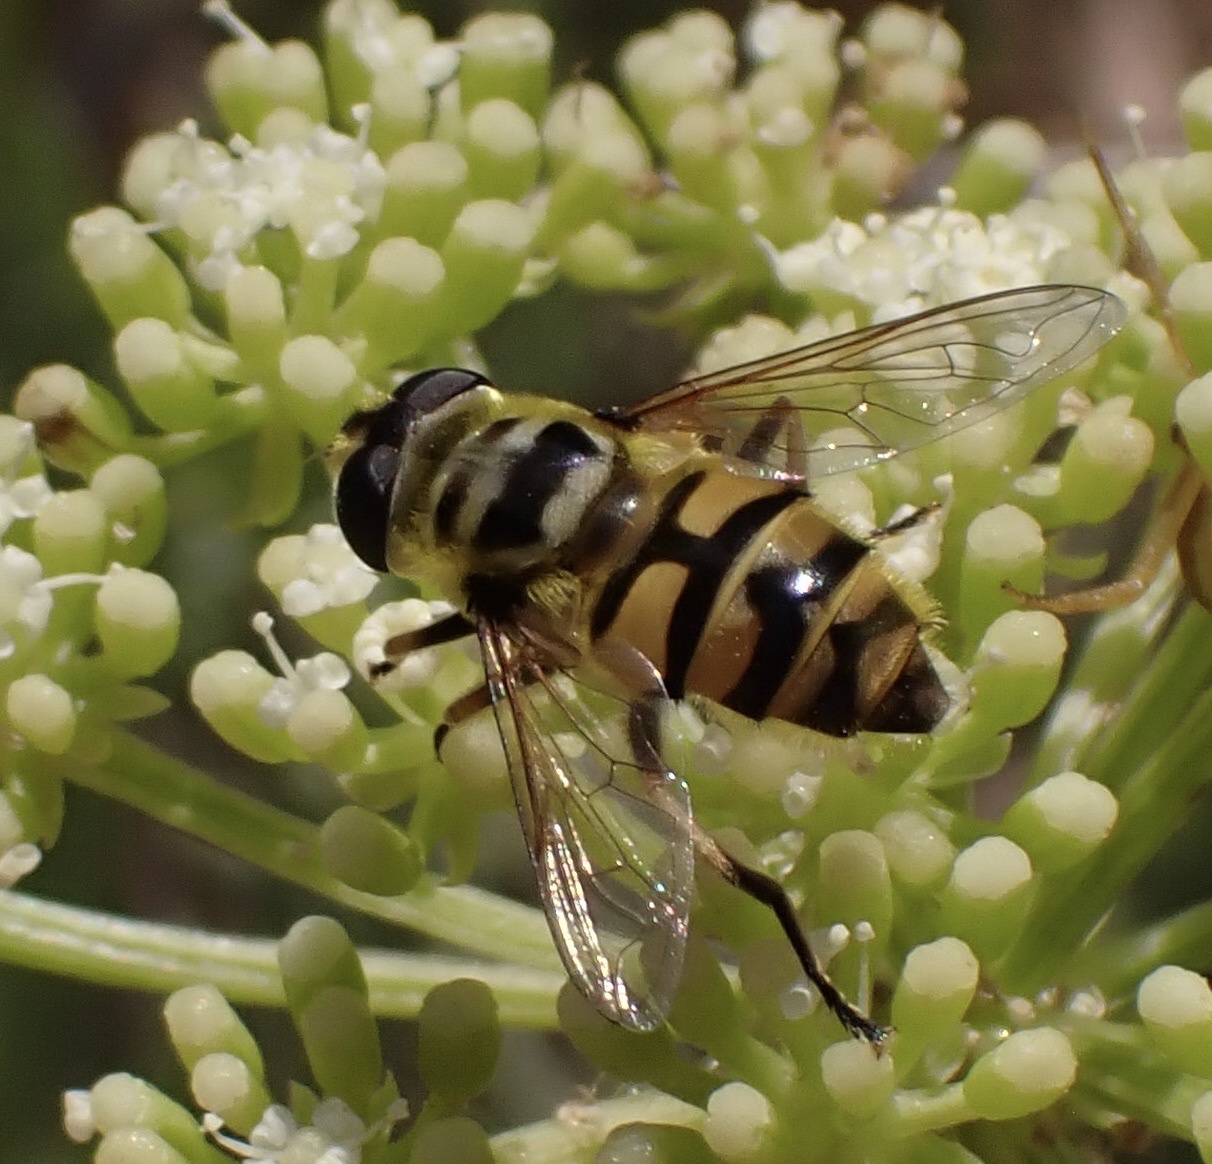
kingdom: Animalia
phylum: Arthropoda
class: Insecta
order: Diptera
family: Syrphidae
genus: Myathropa
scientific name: Myathropa florea
